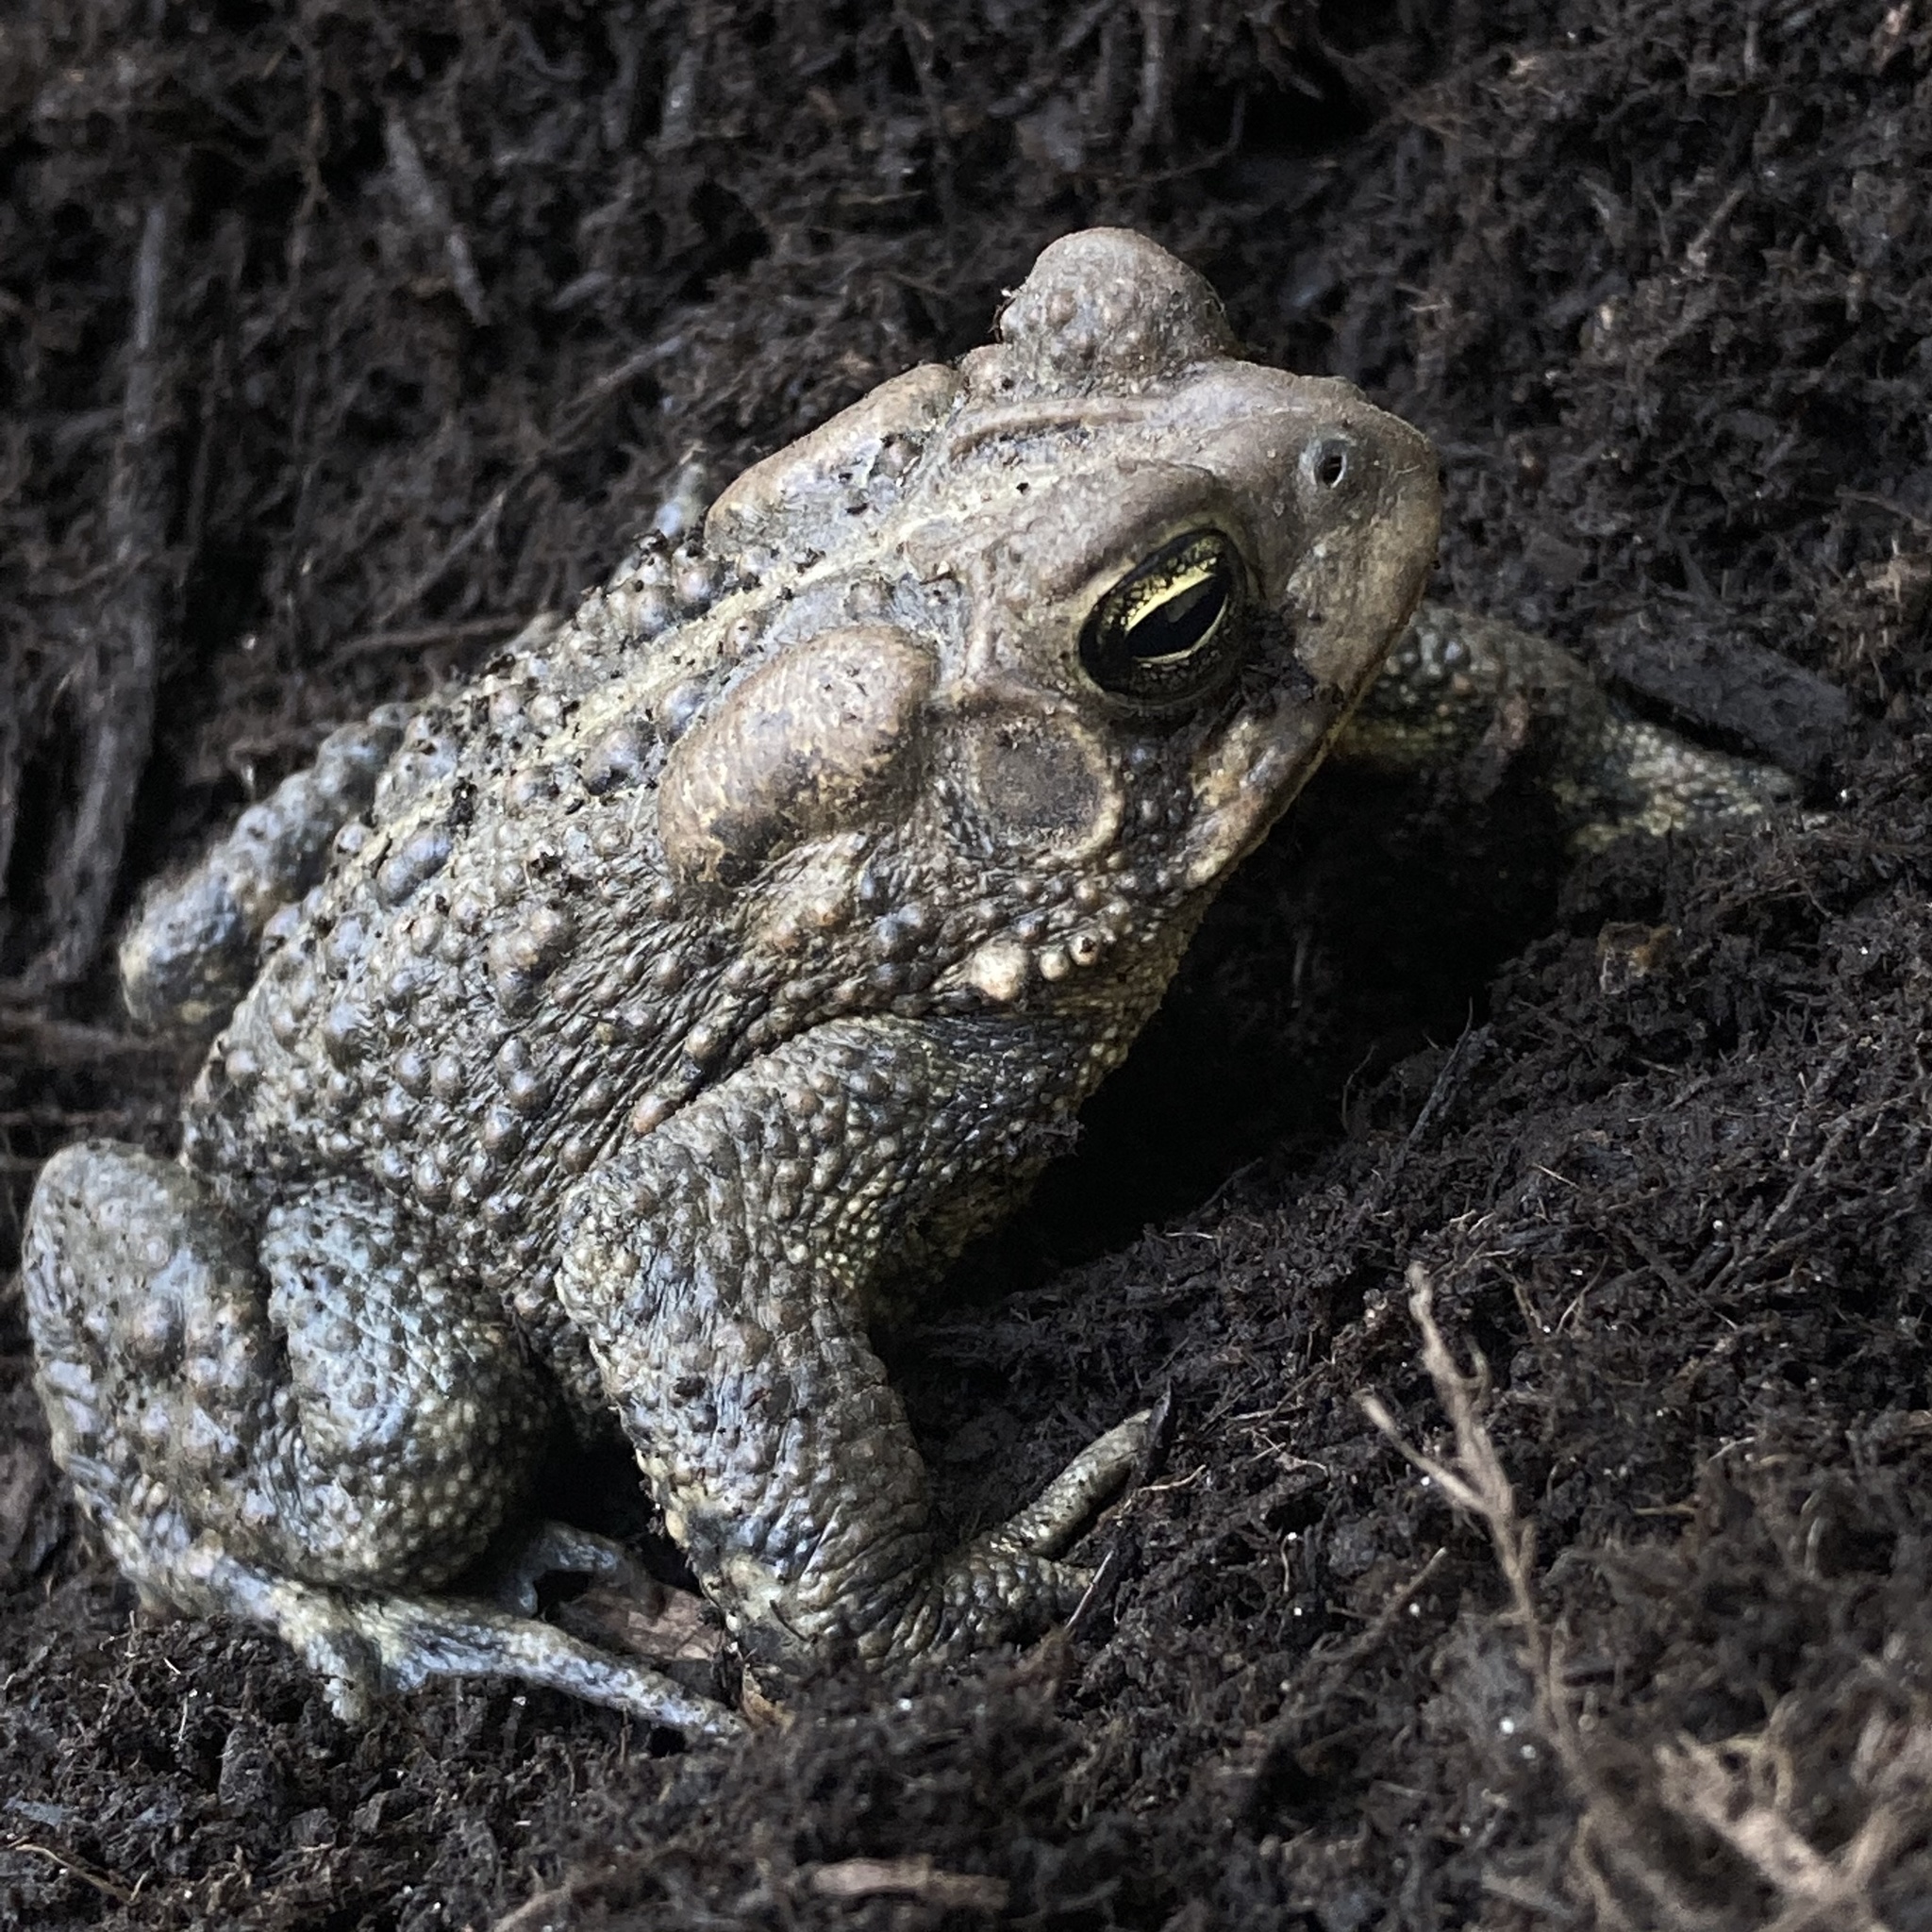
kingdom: Animalia
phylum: Chordata
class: Amphibia
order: Anura
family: Bufonidae
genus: Anaxyrus
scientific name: Anaxyrus americanus
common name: American toad
